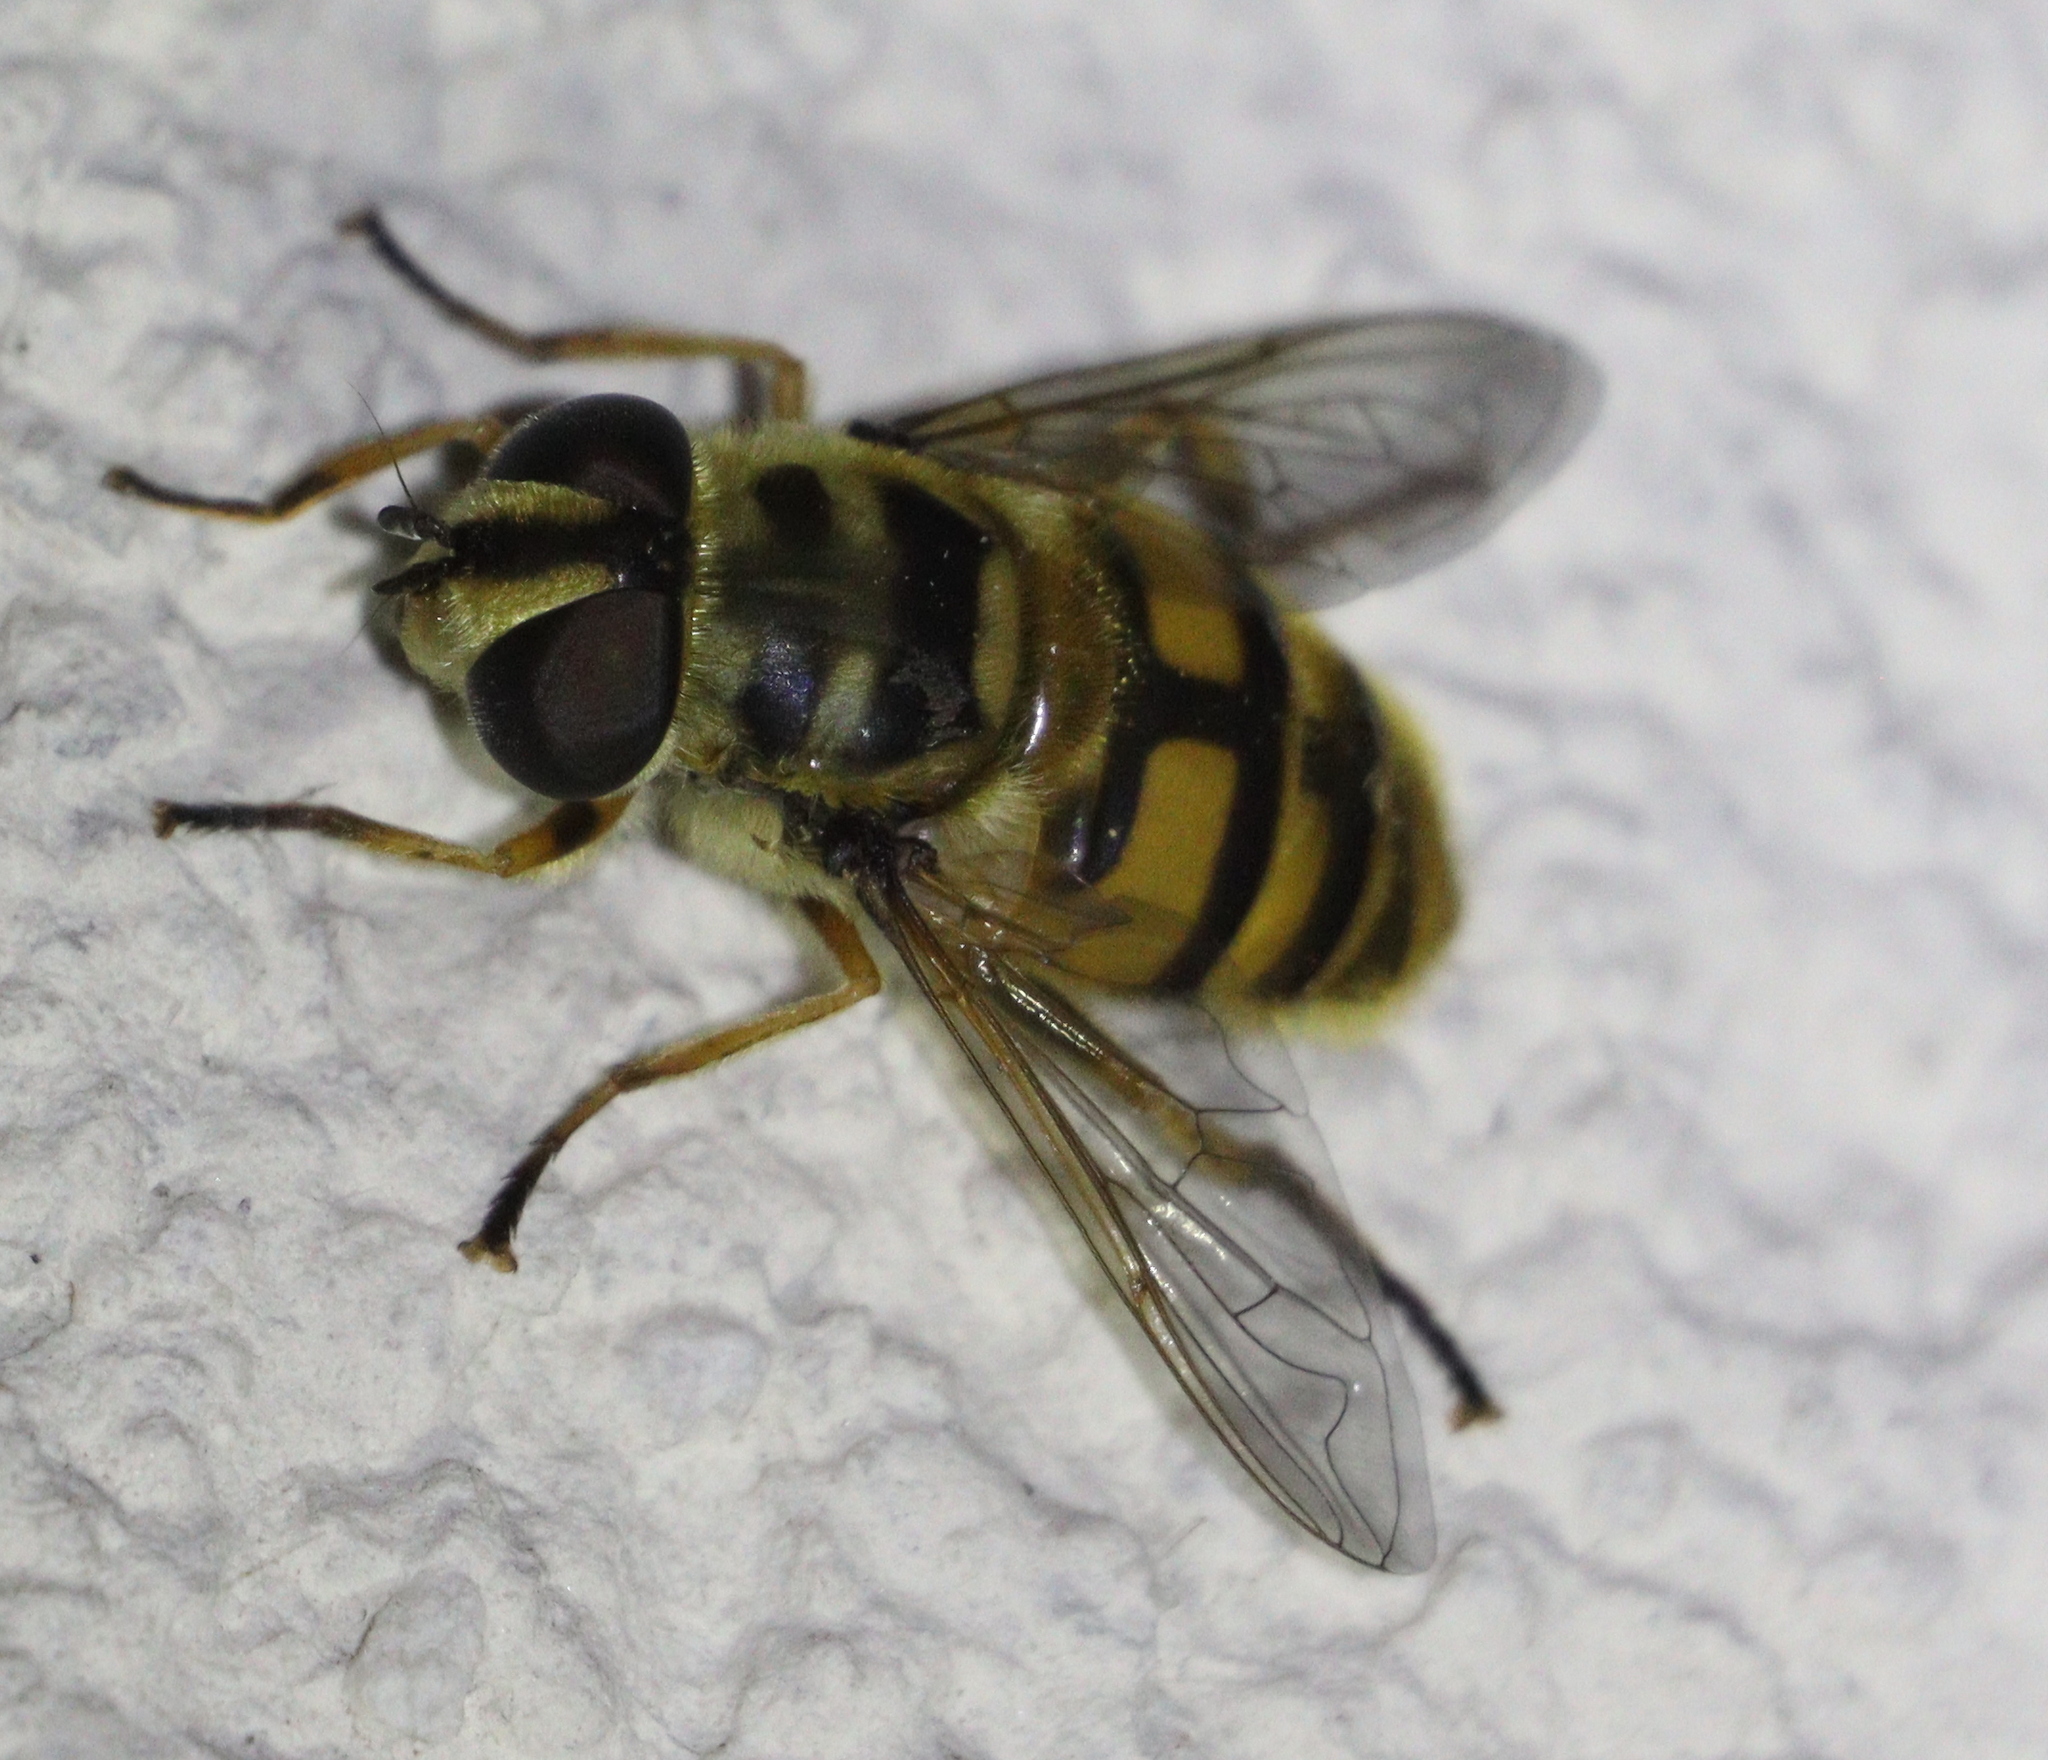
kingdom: Animalia
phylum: Arthropoda
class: Insecta
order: Diptera
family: Syrphidae
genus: Myathropa
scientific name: Myathropa florea
